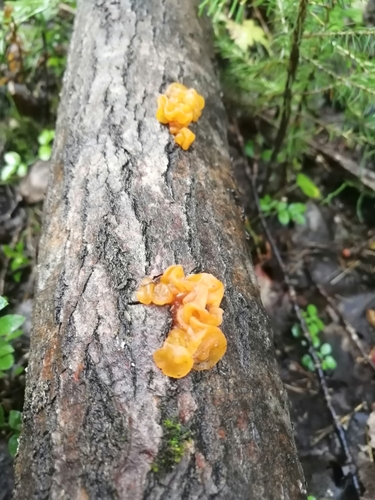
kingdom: Fungi
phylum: Basidiomycota
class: Tremellomycetes
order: Tremellales
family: Tremellaceae
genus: Tremella
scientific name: Tremella mesenterica
